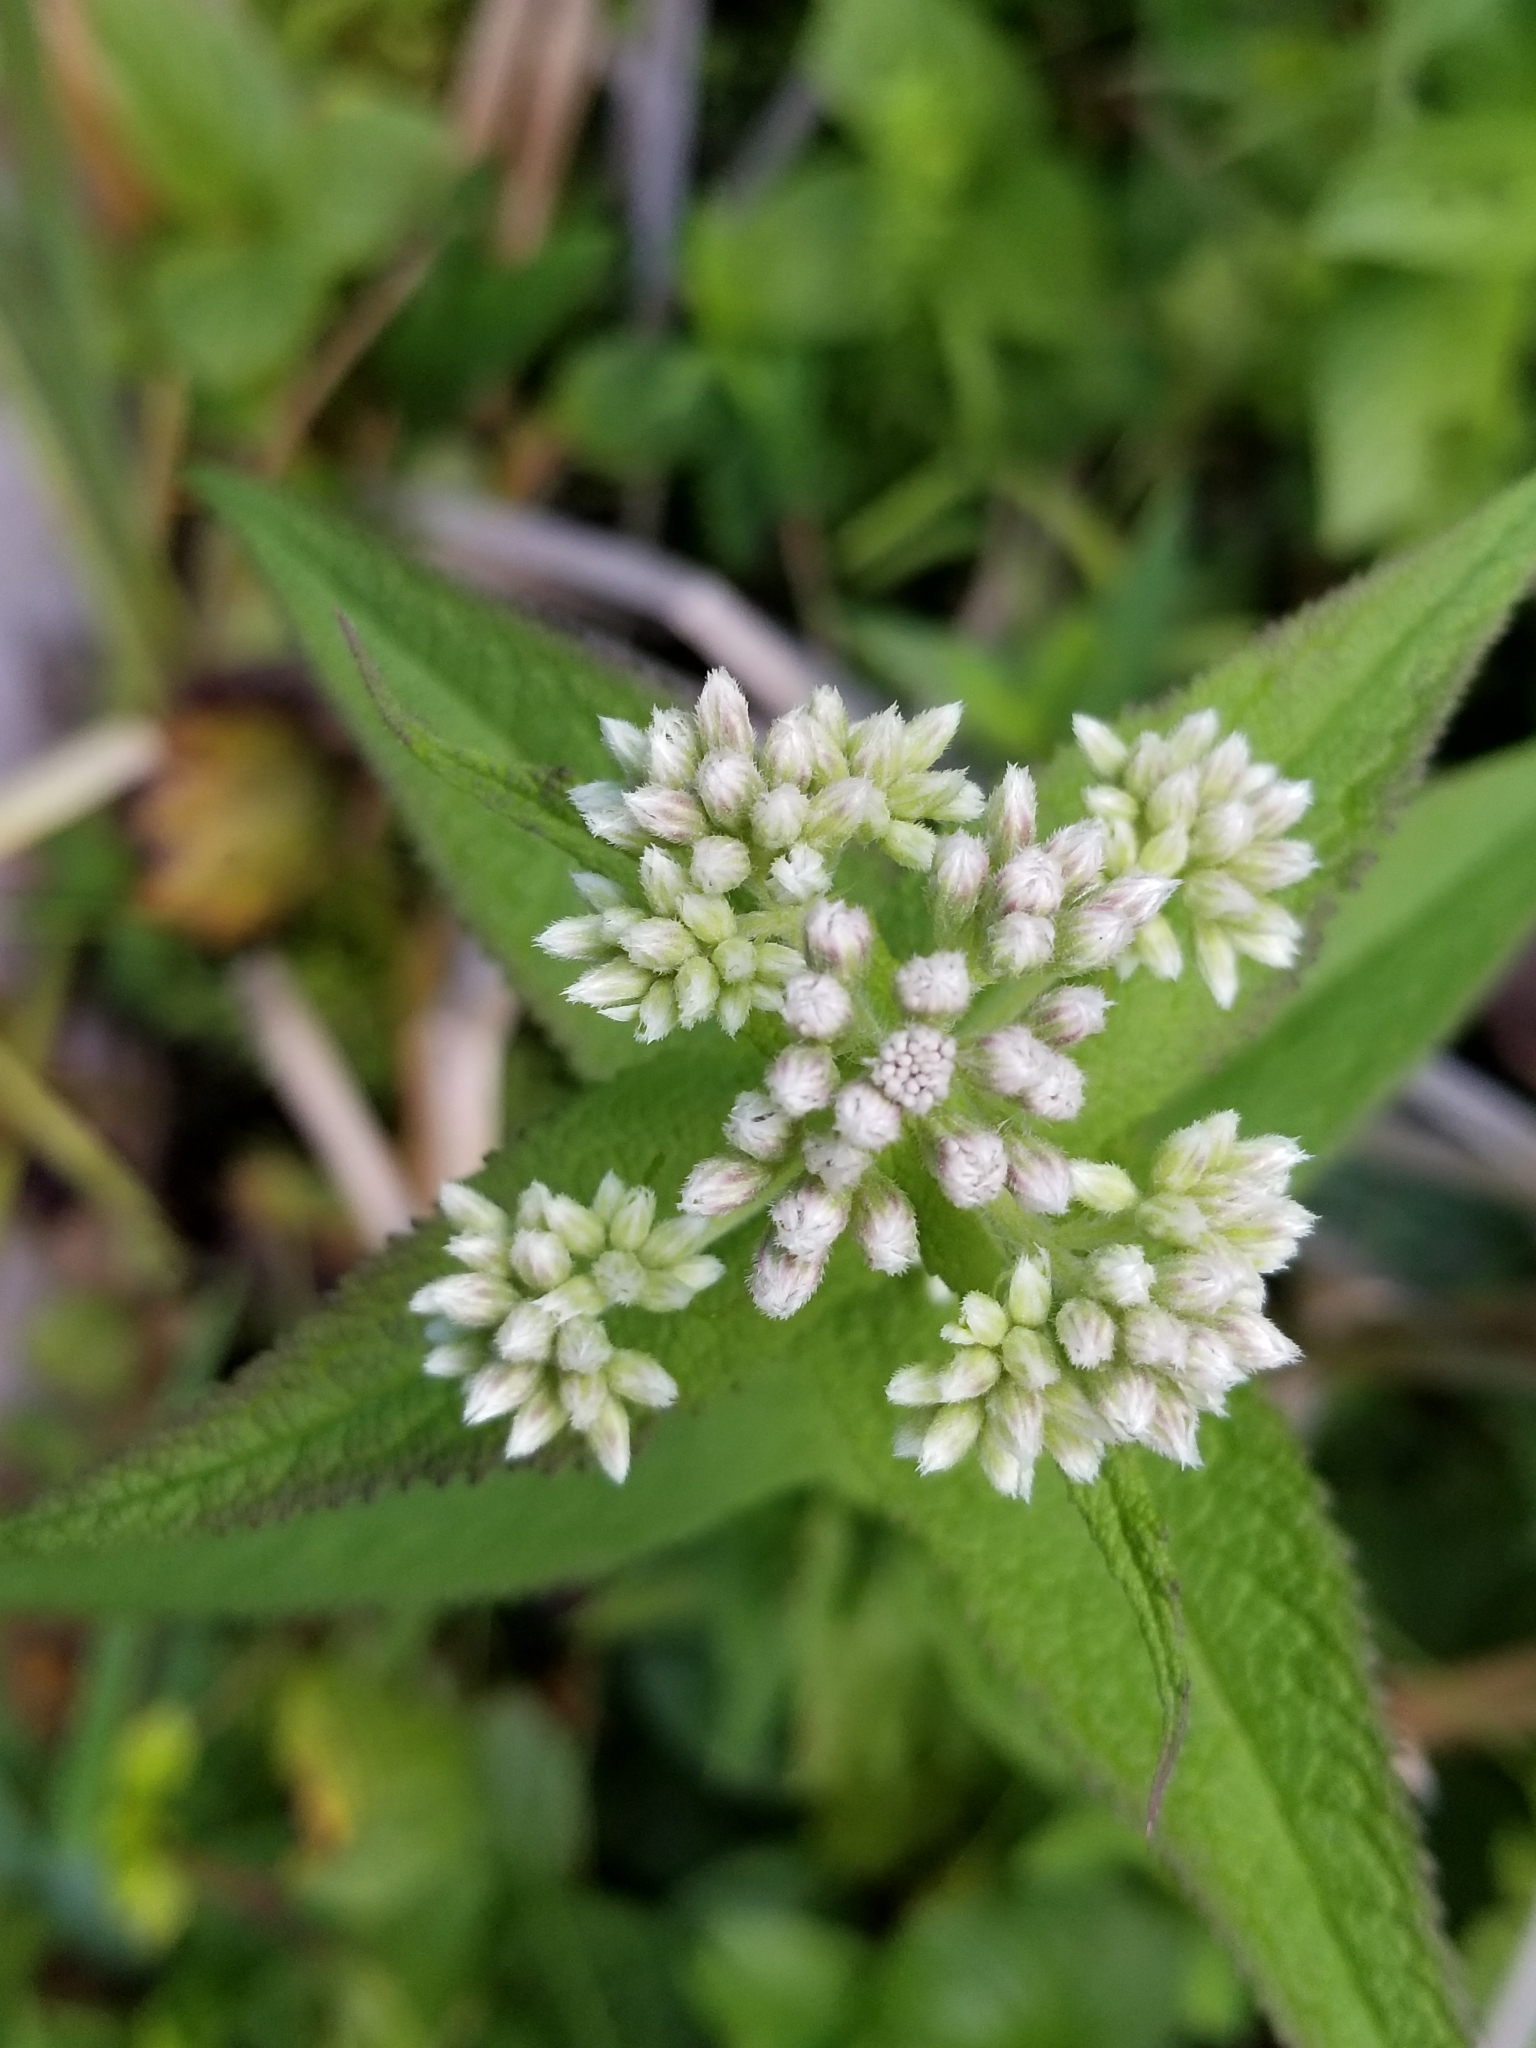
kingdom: Plantae
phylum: Tracheophyta
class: Magnoliopsida
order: Asterales
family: Asteraceae
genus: Eupatorium
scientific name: Eupatorium perfoliatum
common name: Boneset
